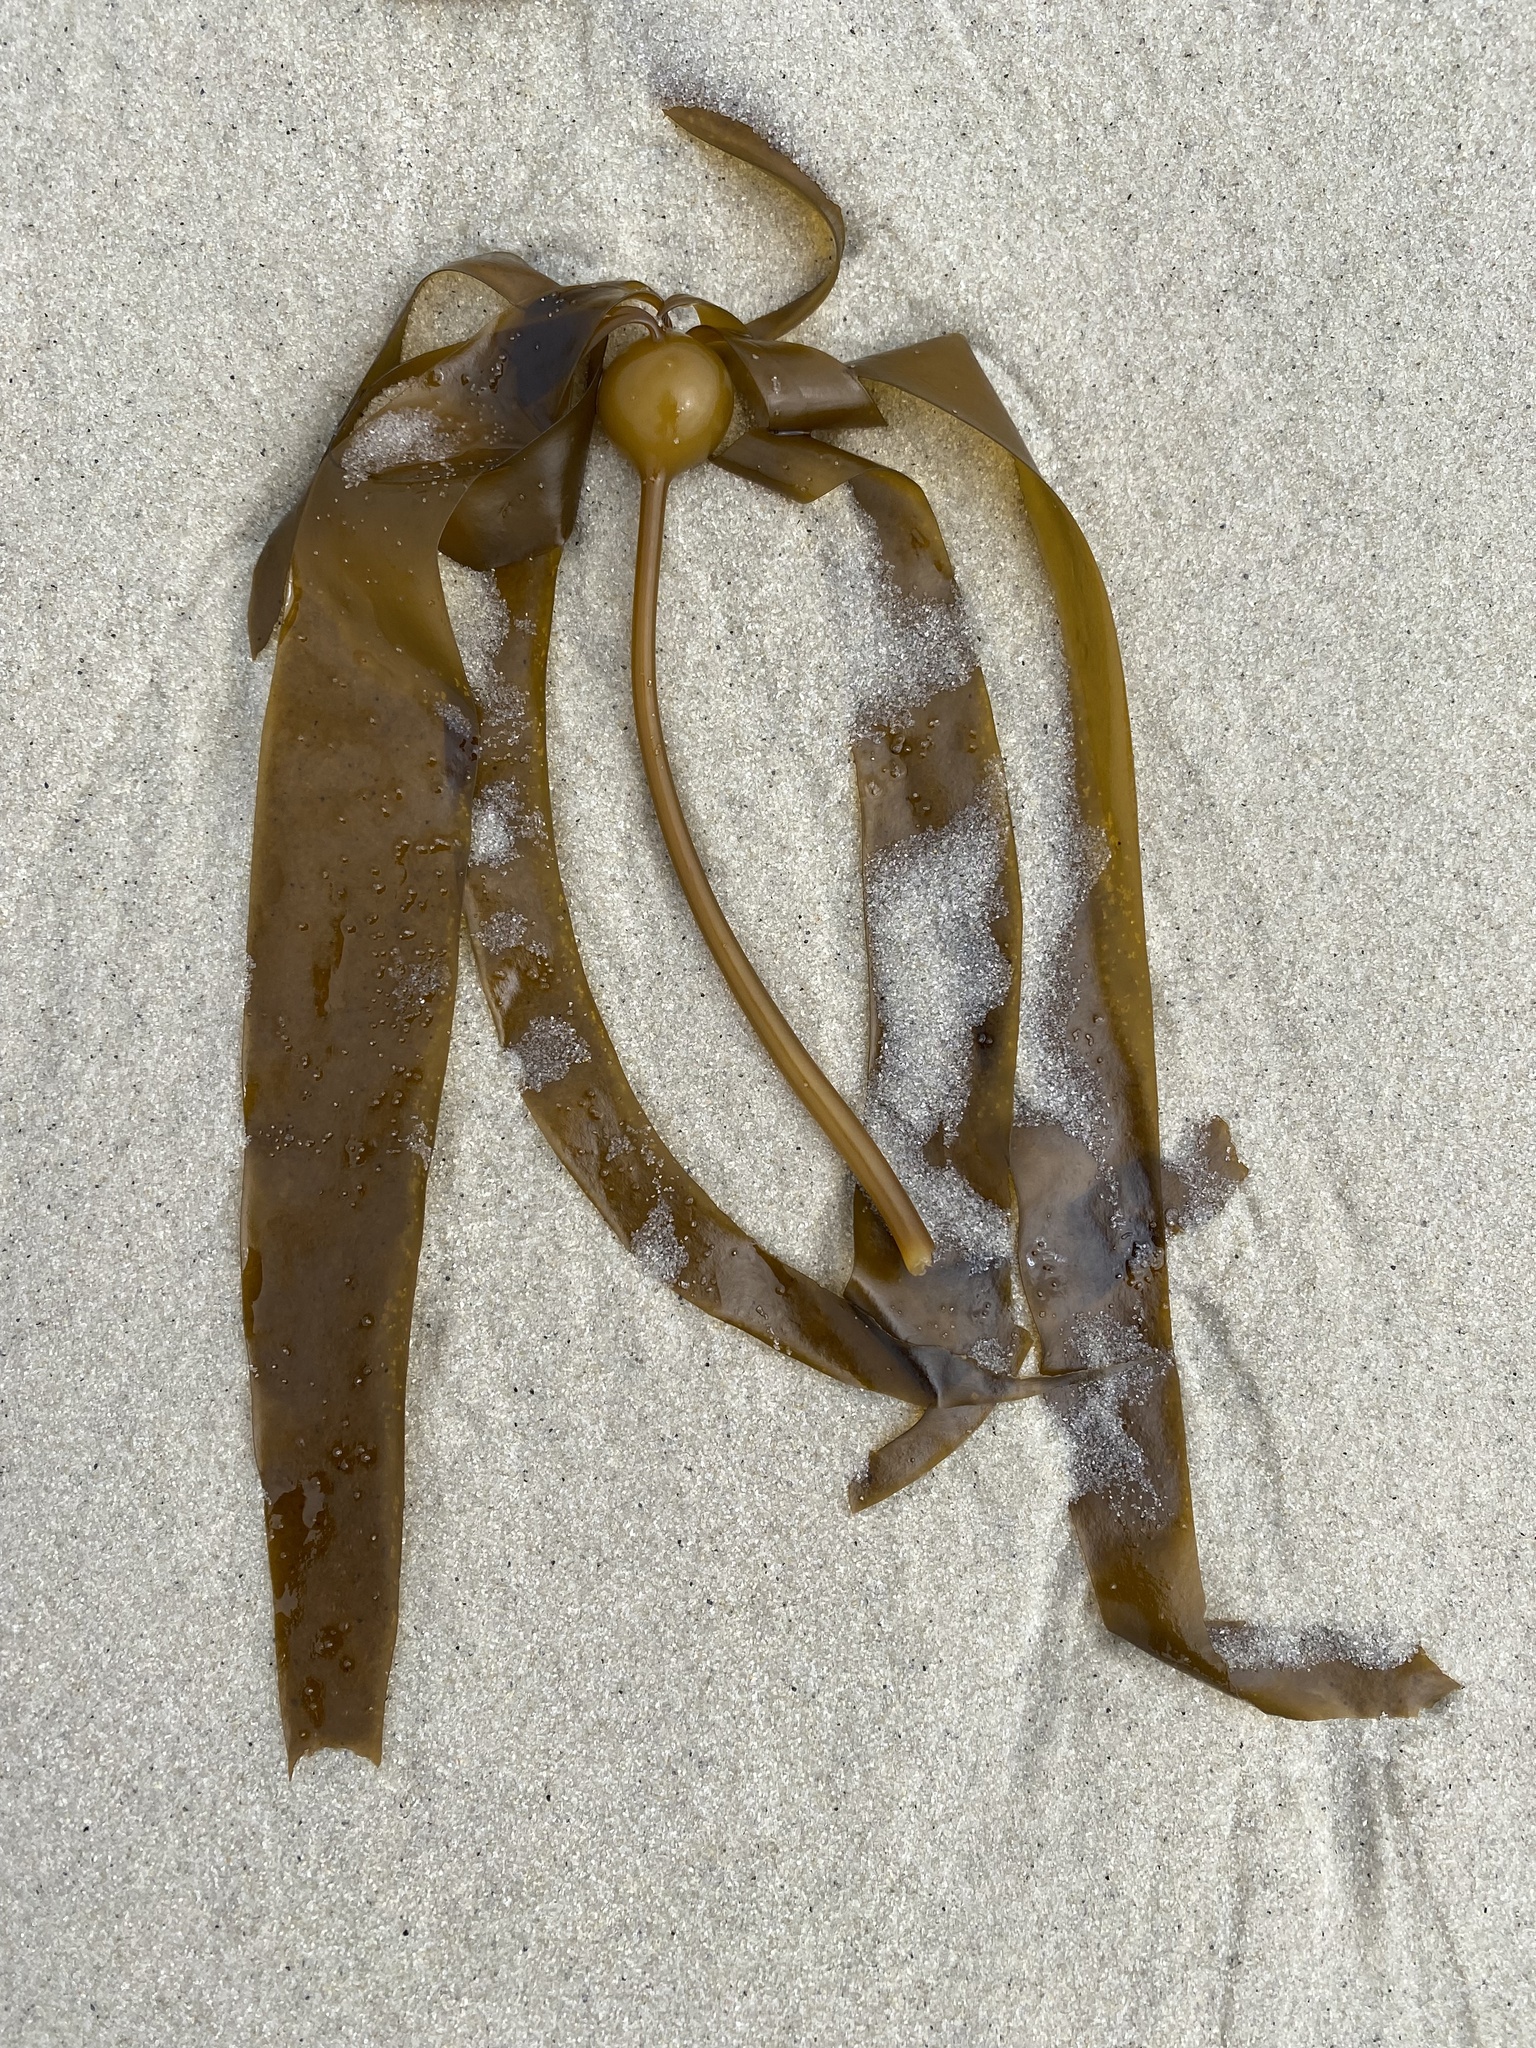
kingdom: Chromista
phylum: Ochrophyta
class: Phaeophyceae
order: Laminariales
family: Laminariaceae
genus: Nereocystis
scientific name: Nereocystis luetkeana
